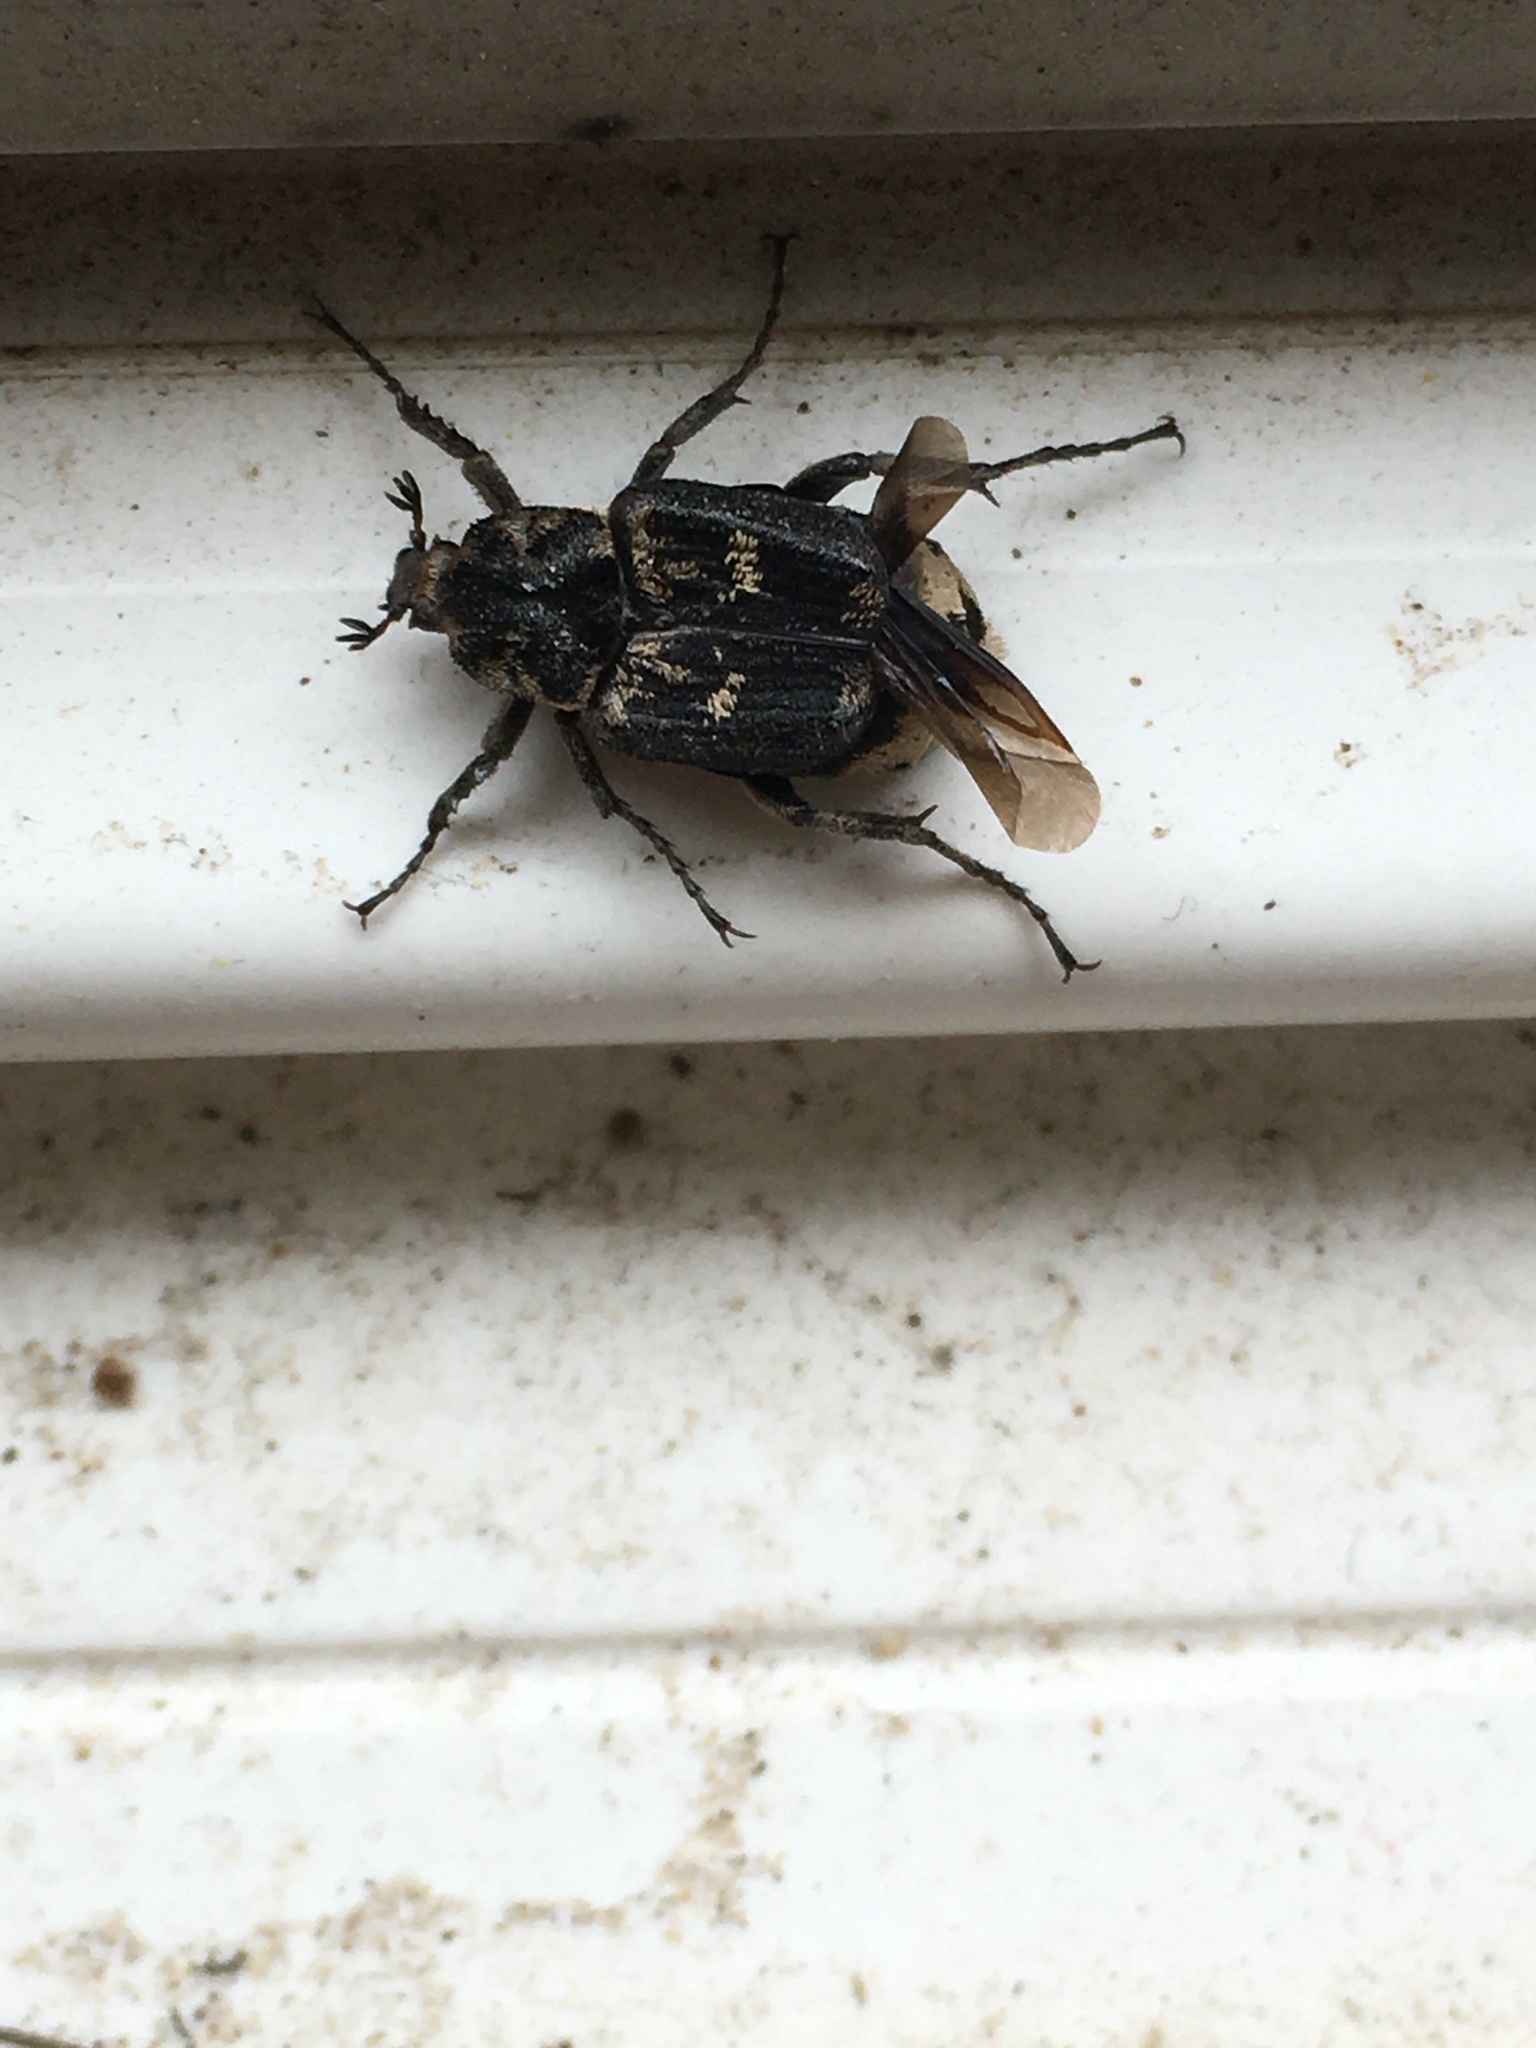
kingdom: Animalia
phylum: Arthropoda
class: Insecta
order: Coleoptera
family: Scarabaeidae
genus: Valgus
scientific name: Valgus hemipterus
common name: Bug flower chafer
